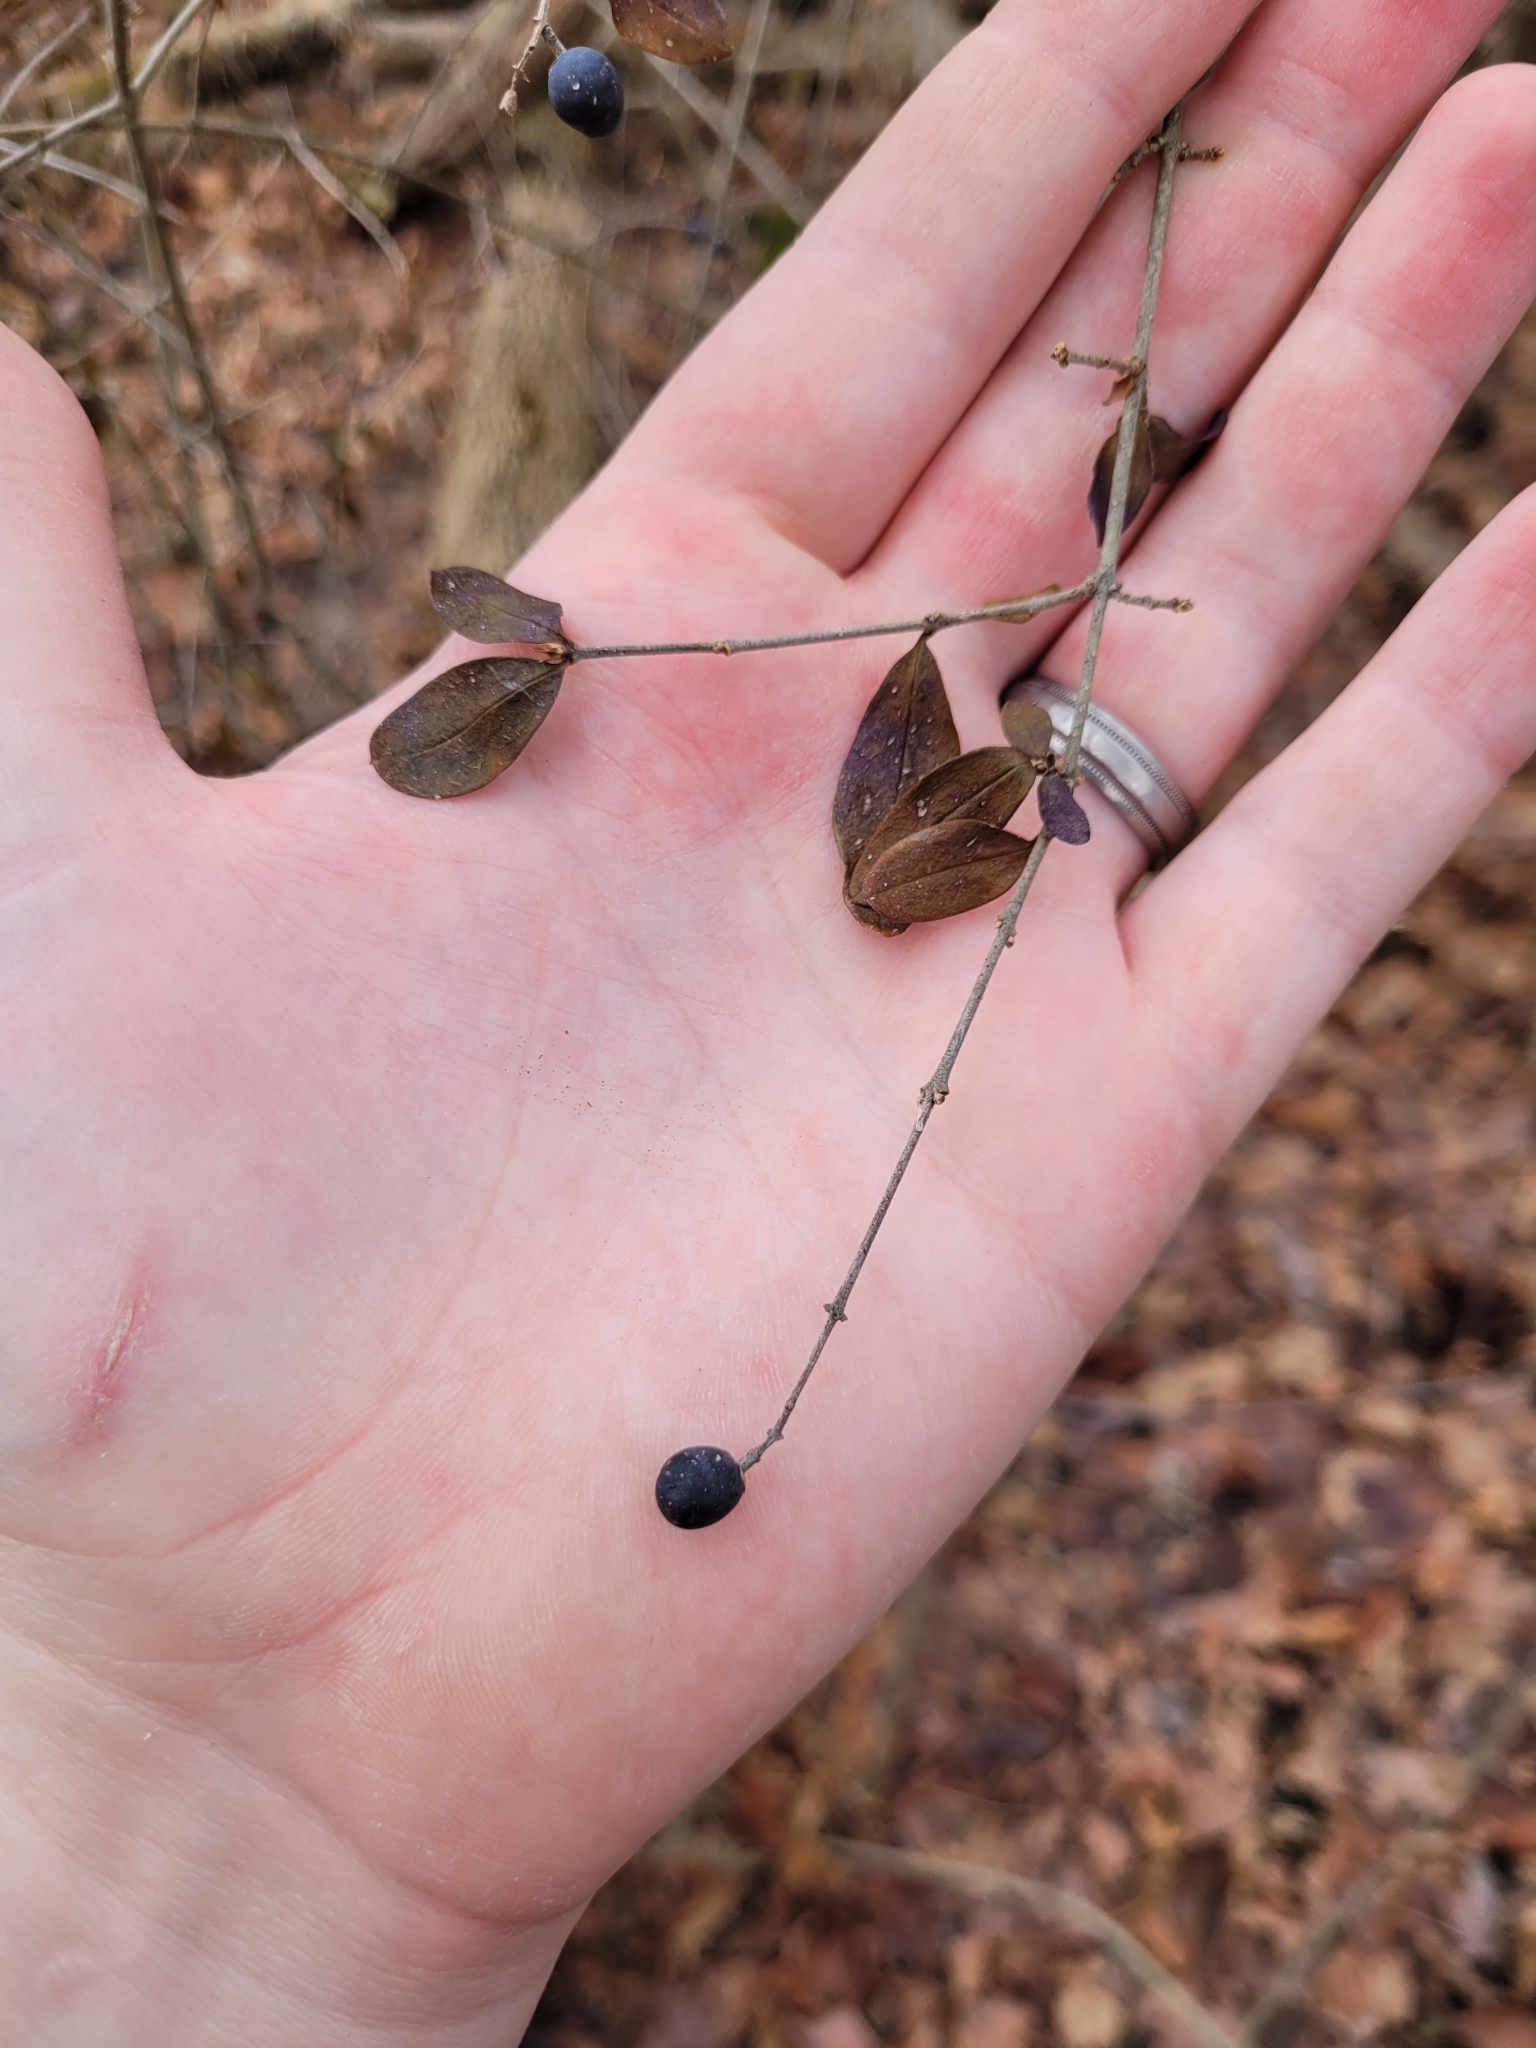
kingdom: Plantae
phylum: Tracheophyta
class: Magnoliopsida
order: Lamiales
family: Oleaceae
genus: Ligustrum
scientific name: Ligustrum obtusifolium
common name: Border privet
